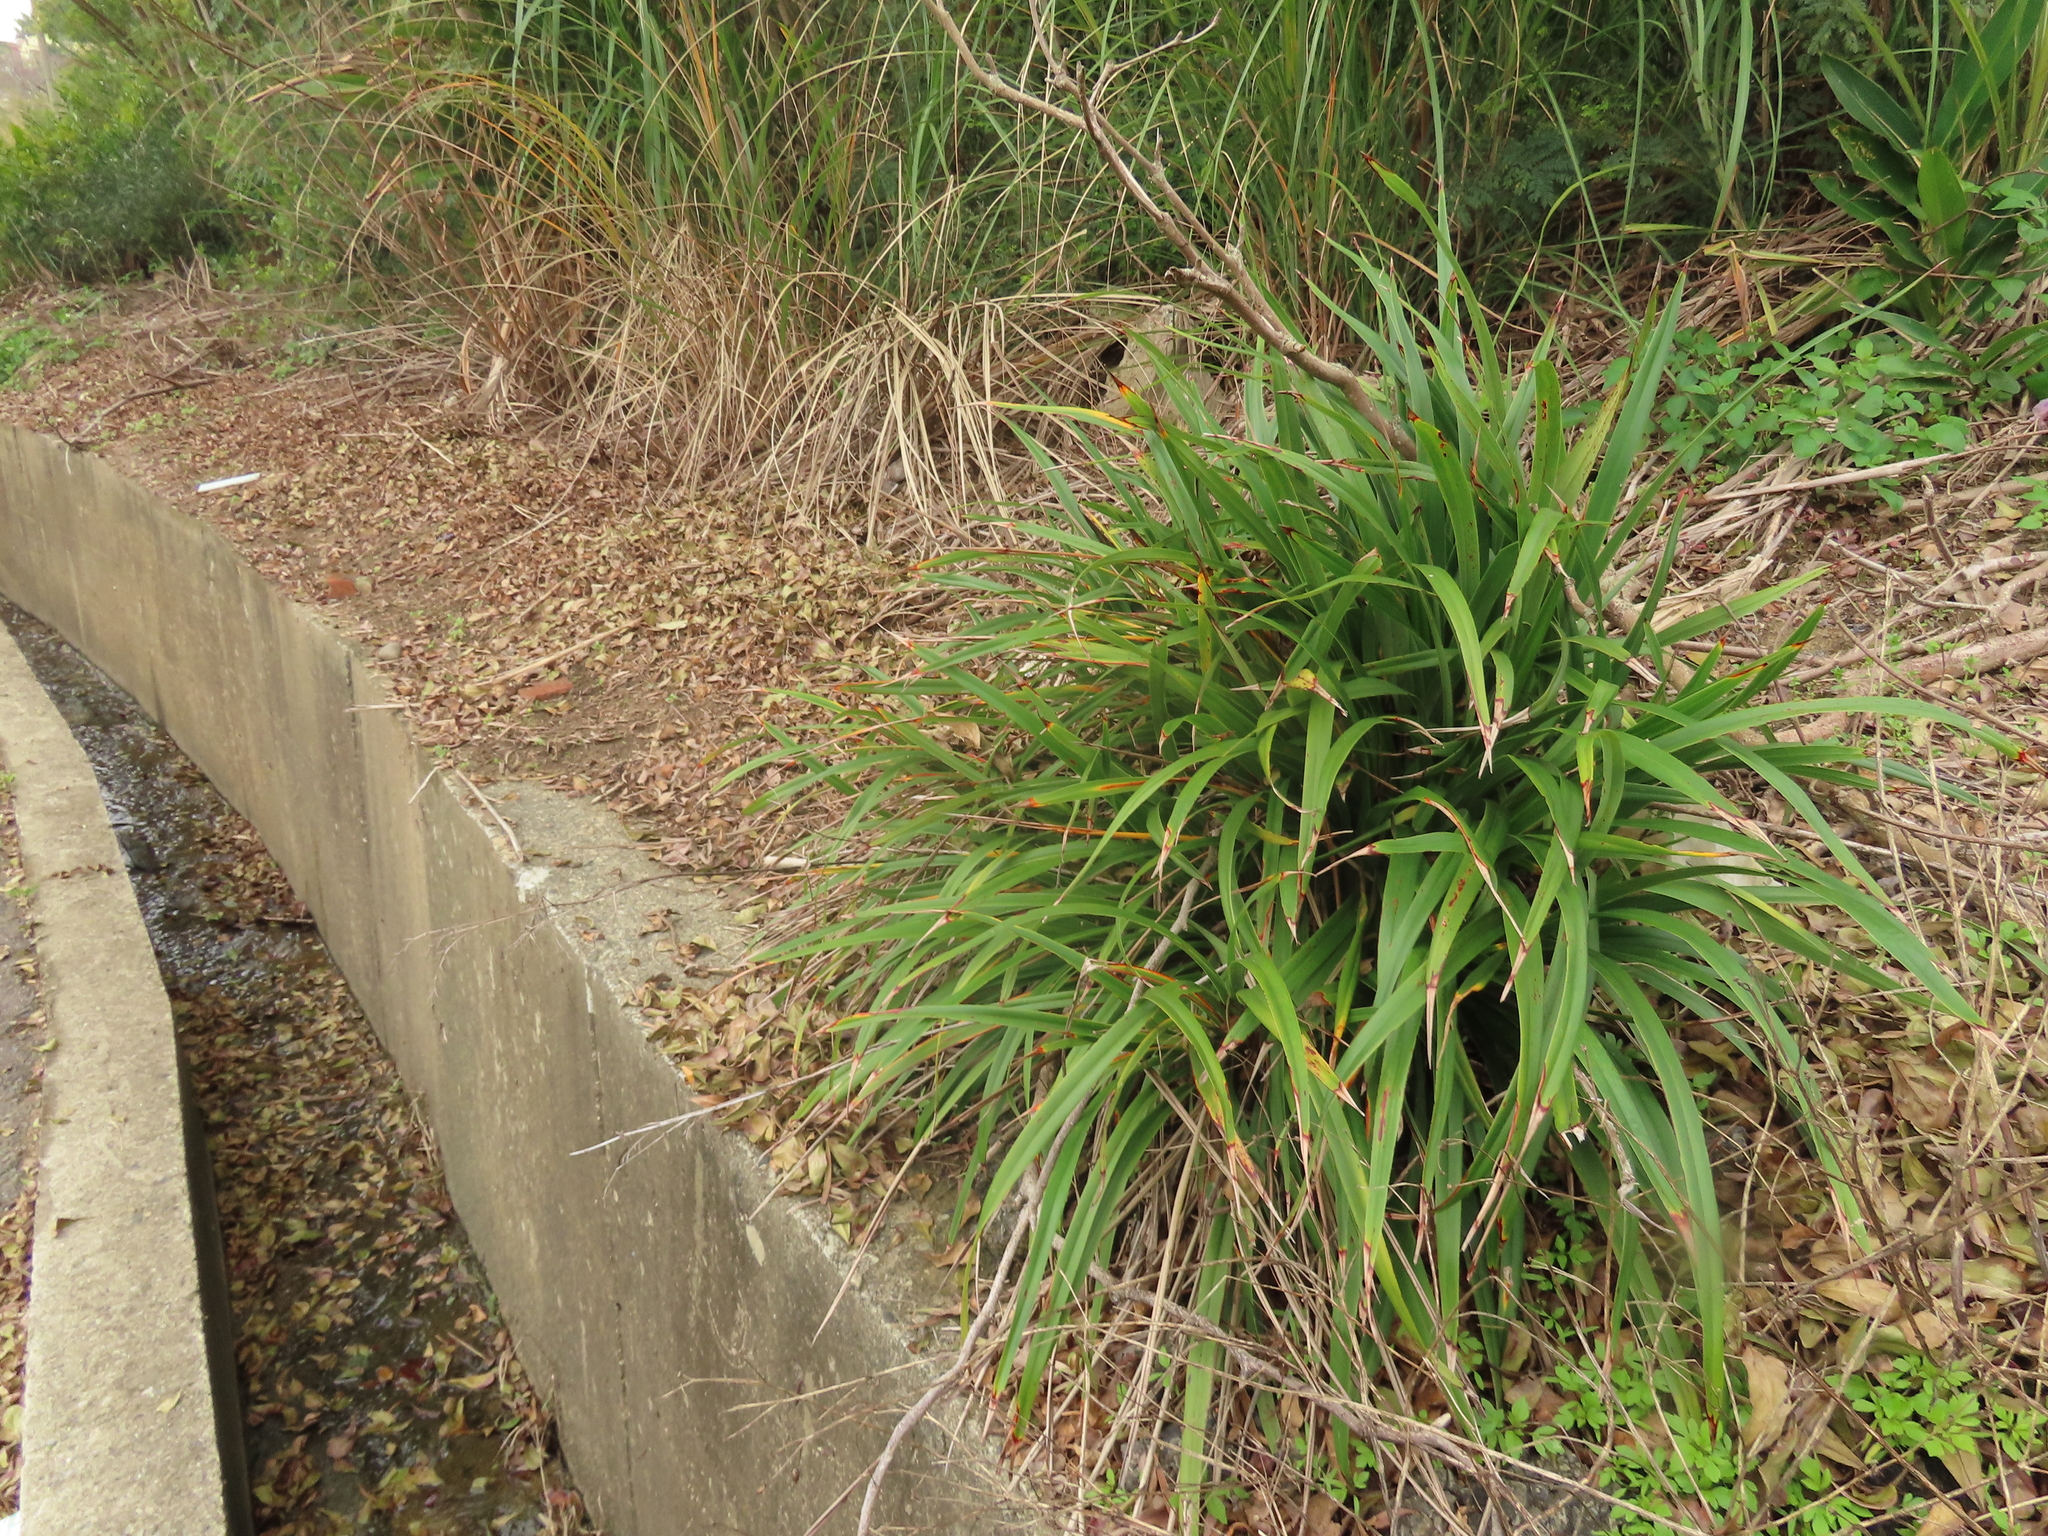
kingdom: Plantae
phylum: Tracheophyta
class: Liliopsida
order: Asparagales
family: Asphodelaceae
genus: Dianella
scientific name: Dianella ensifolia
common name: New zealand lilyplant
